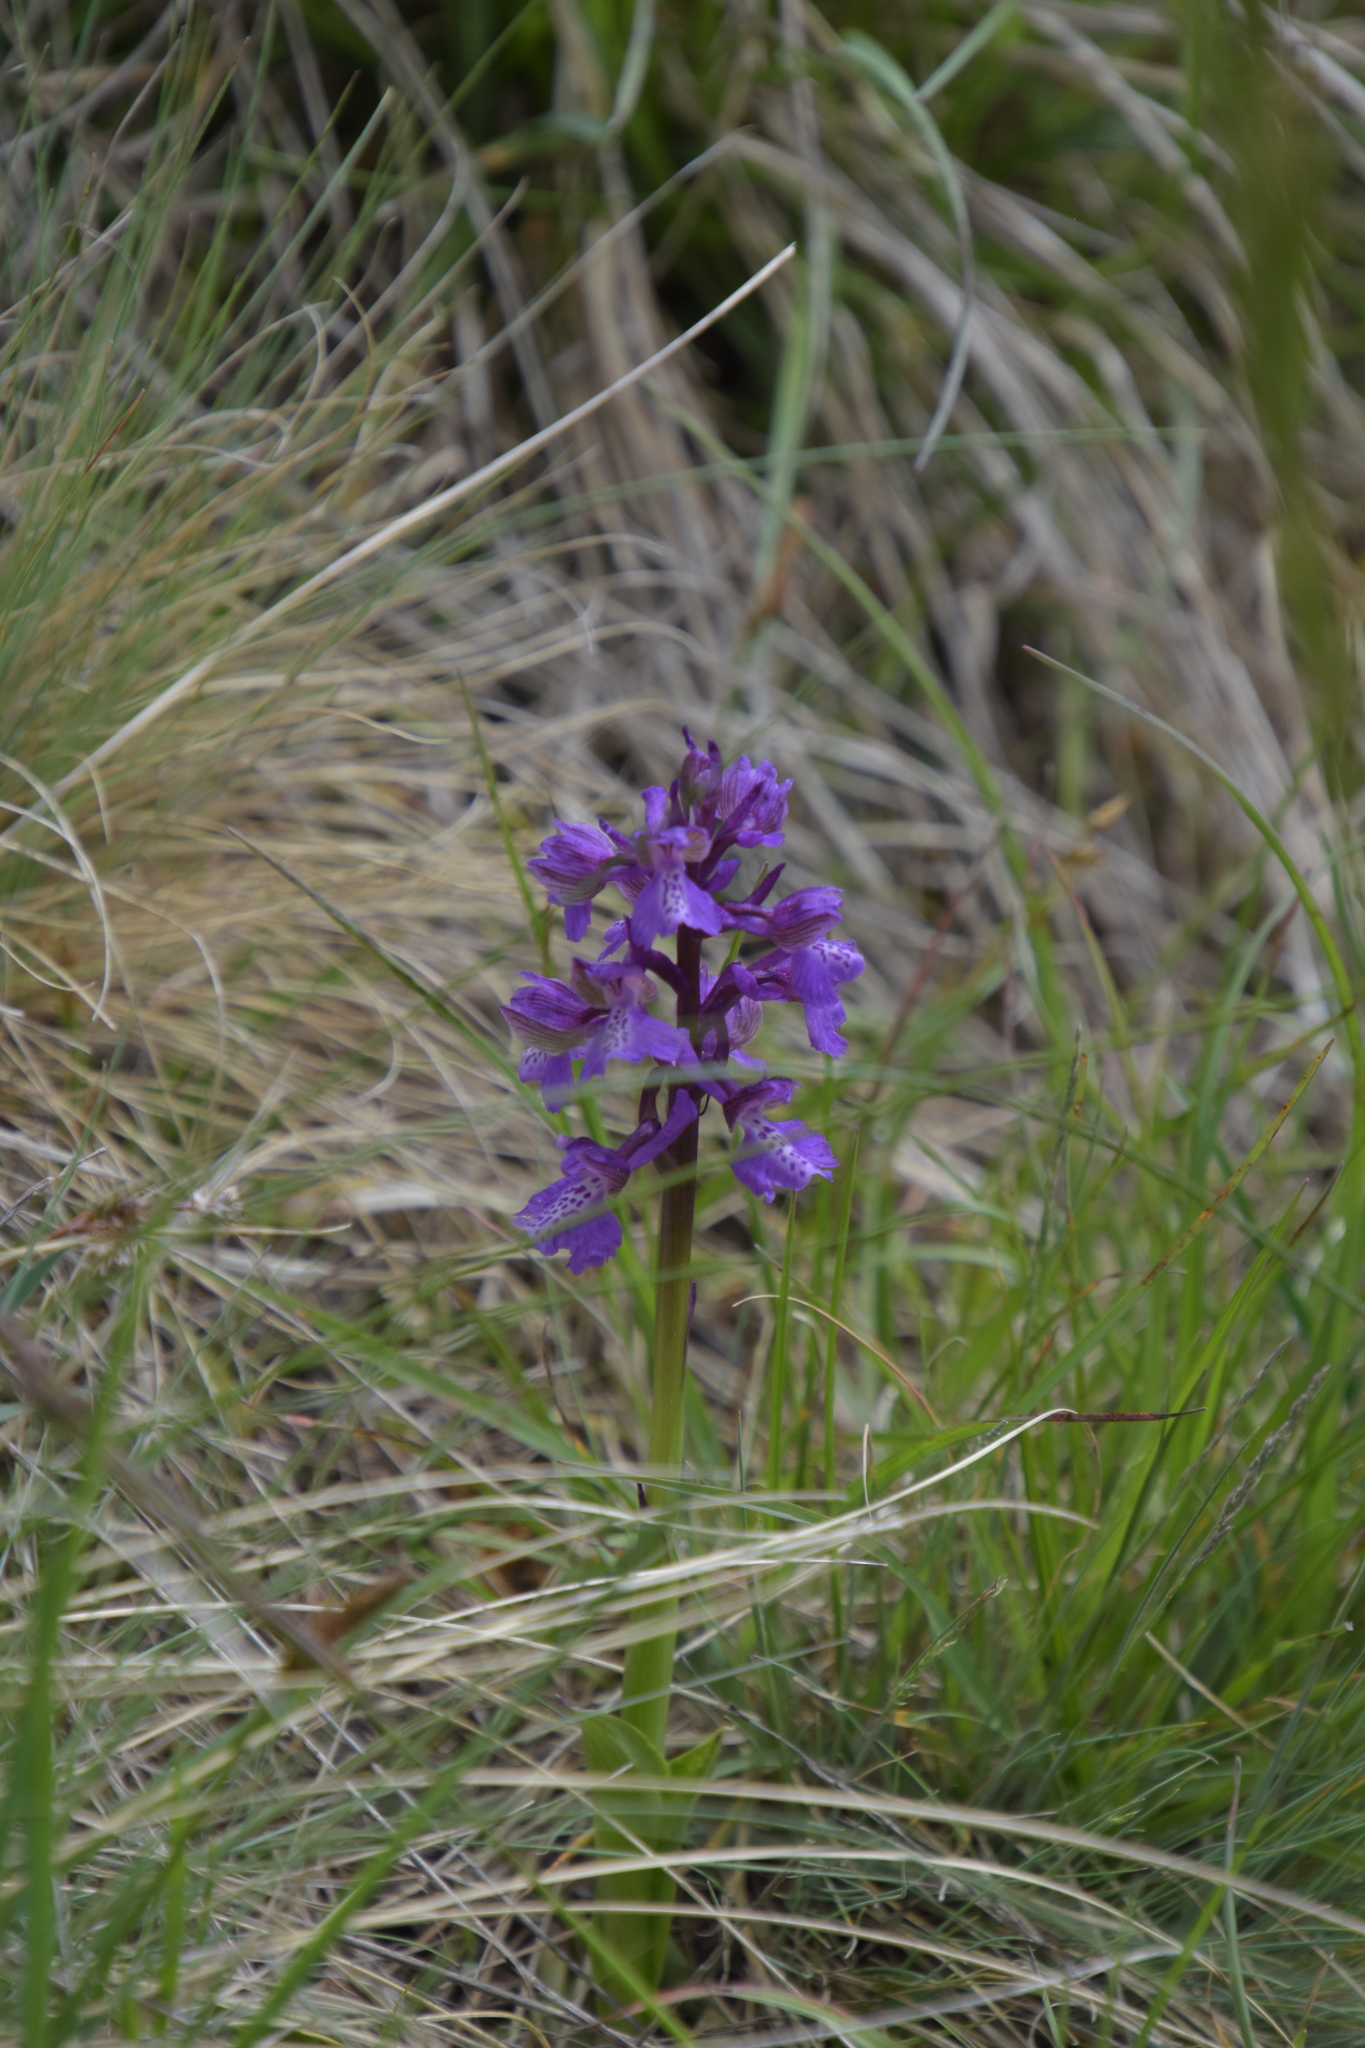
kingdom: Plantae
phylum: Tracheophyta
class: Liliopsida
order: Asparagales
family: Orchidaceae
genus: Anacamptis
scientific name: Anacamptis morio
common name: Green-winged orchid
